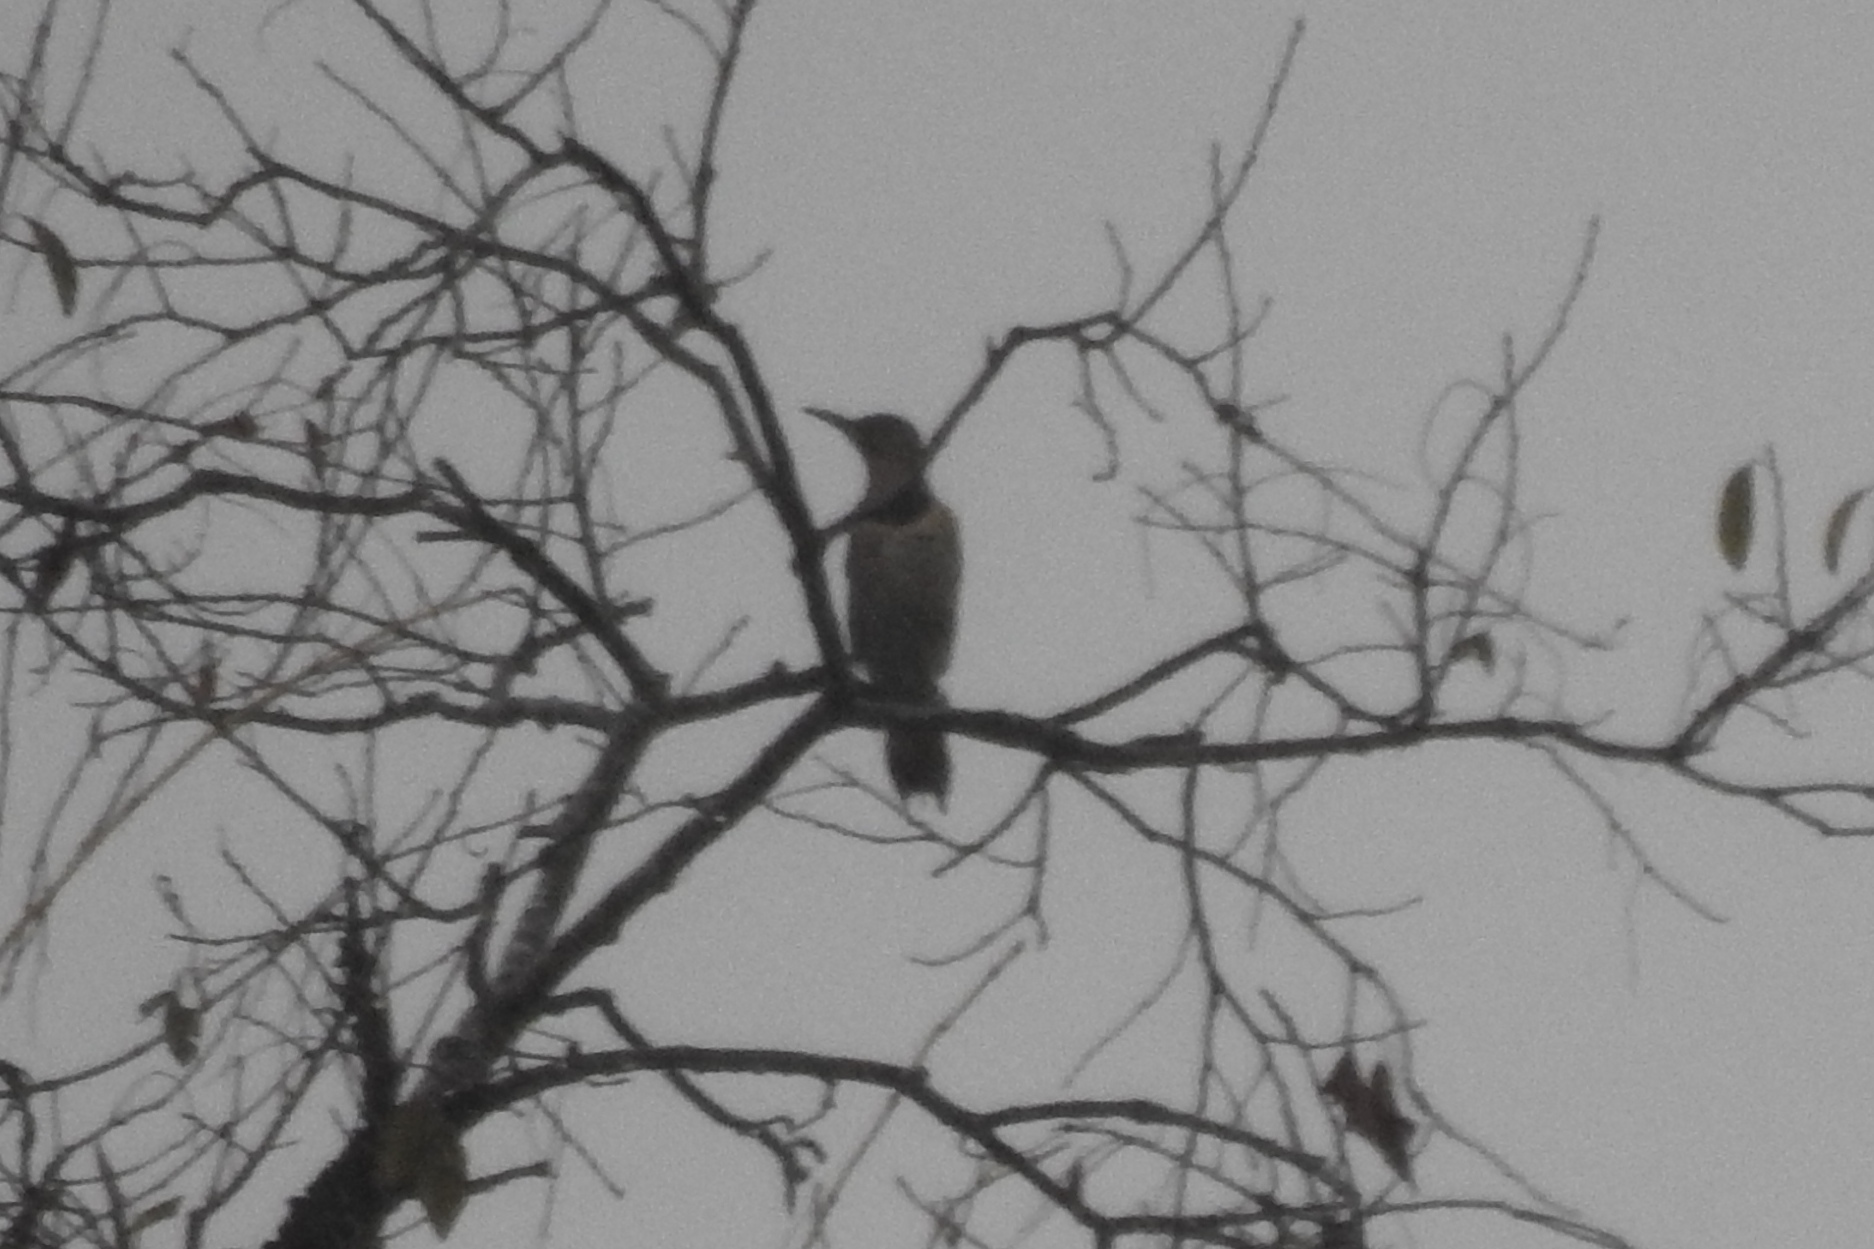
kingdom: Animalia
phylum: Chordata
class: Aves
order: Piciformes
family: Picidae
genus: Colaptes
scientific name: Colaptes auratus
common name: Northern flicker
